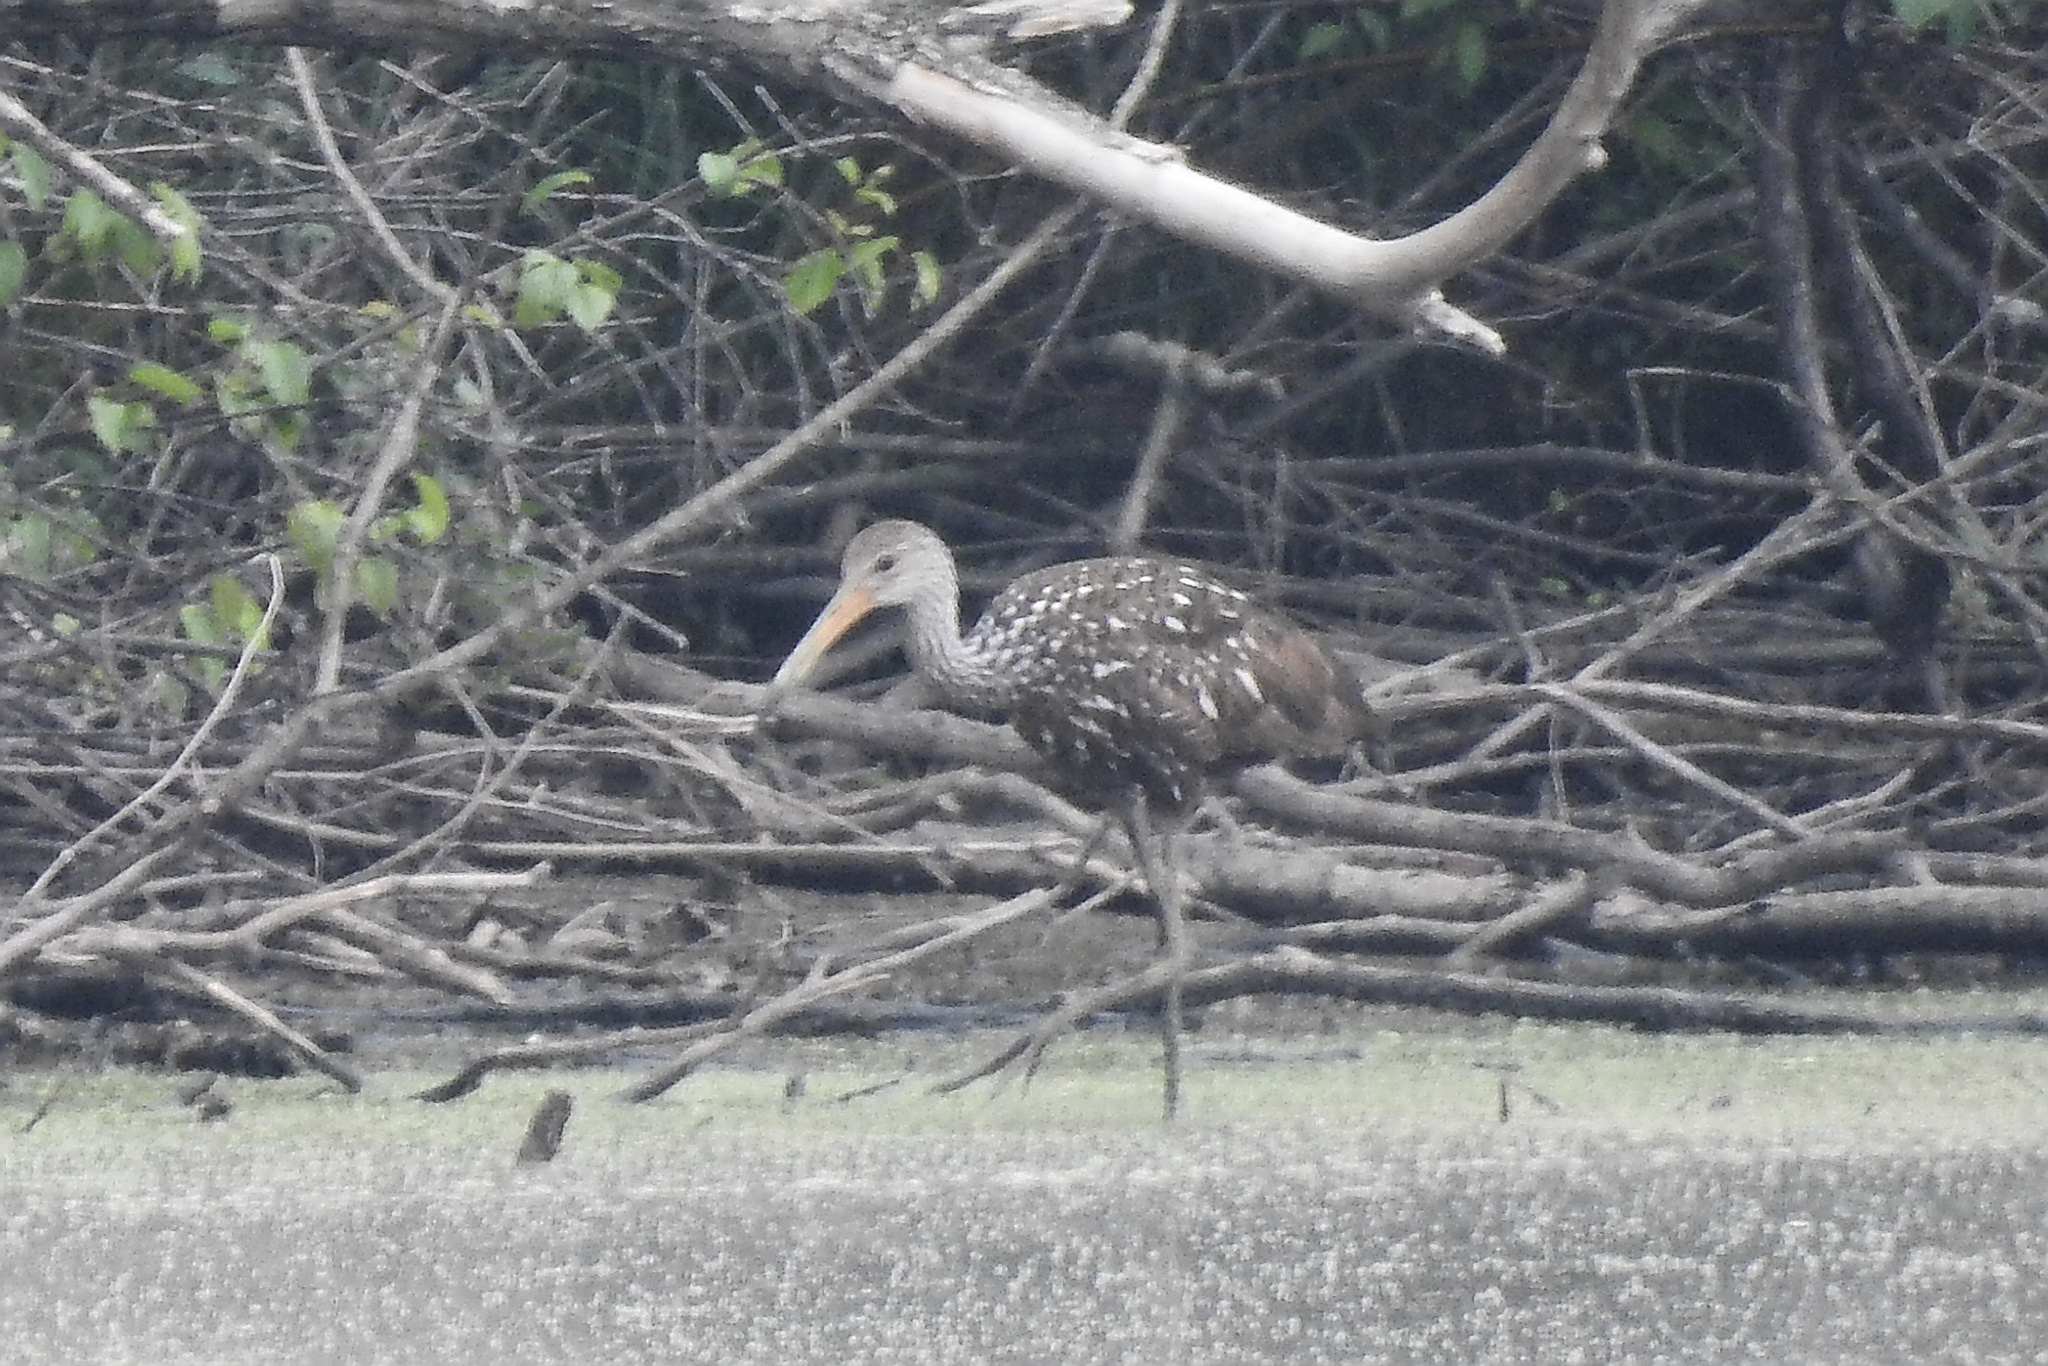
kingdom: Animalia
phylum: Chordata
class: Aves
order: Gruiformes
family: Aramidae
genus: Aramus
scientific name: Aramus guarauna
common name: Limpkin
